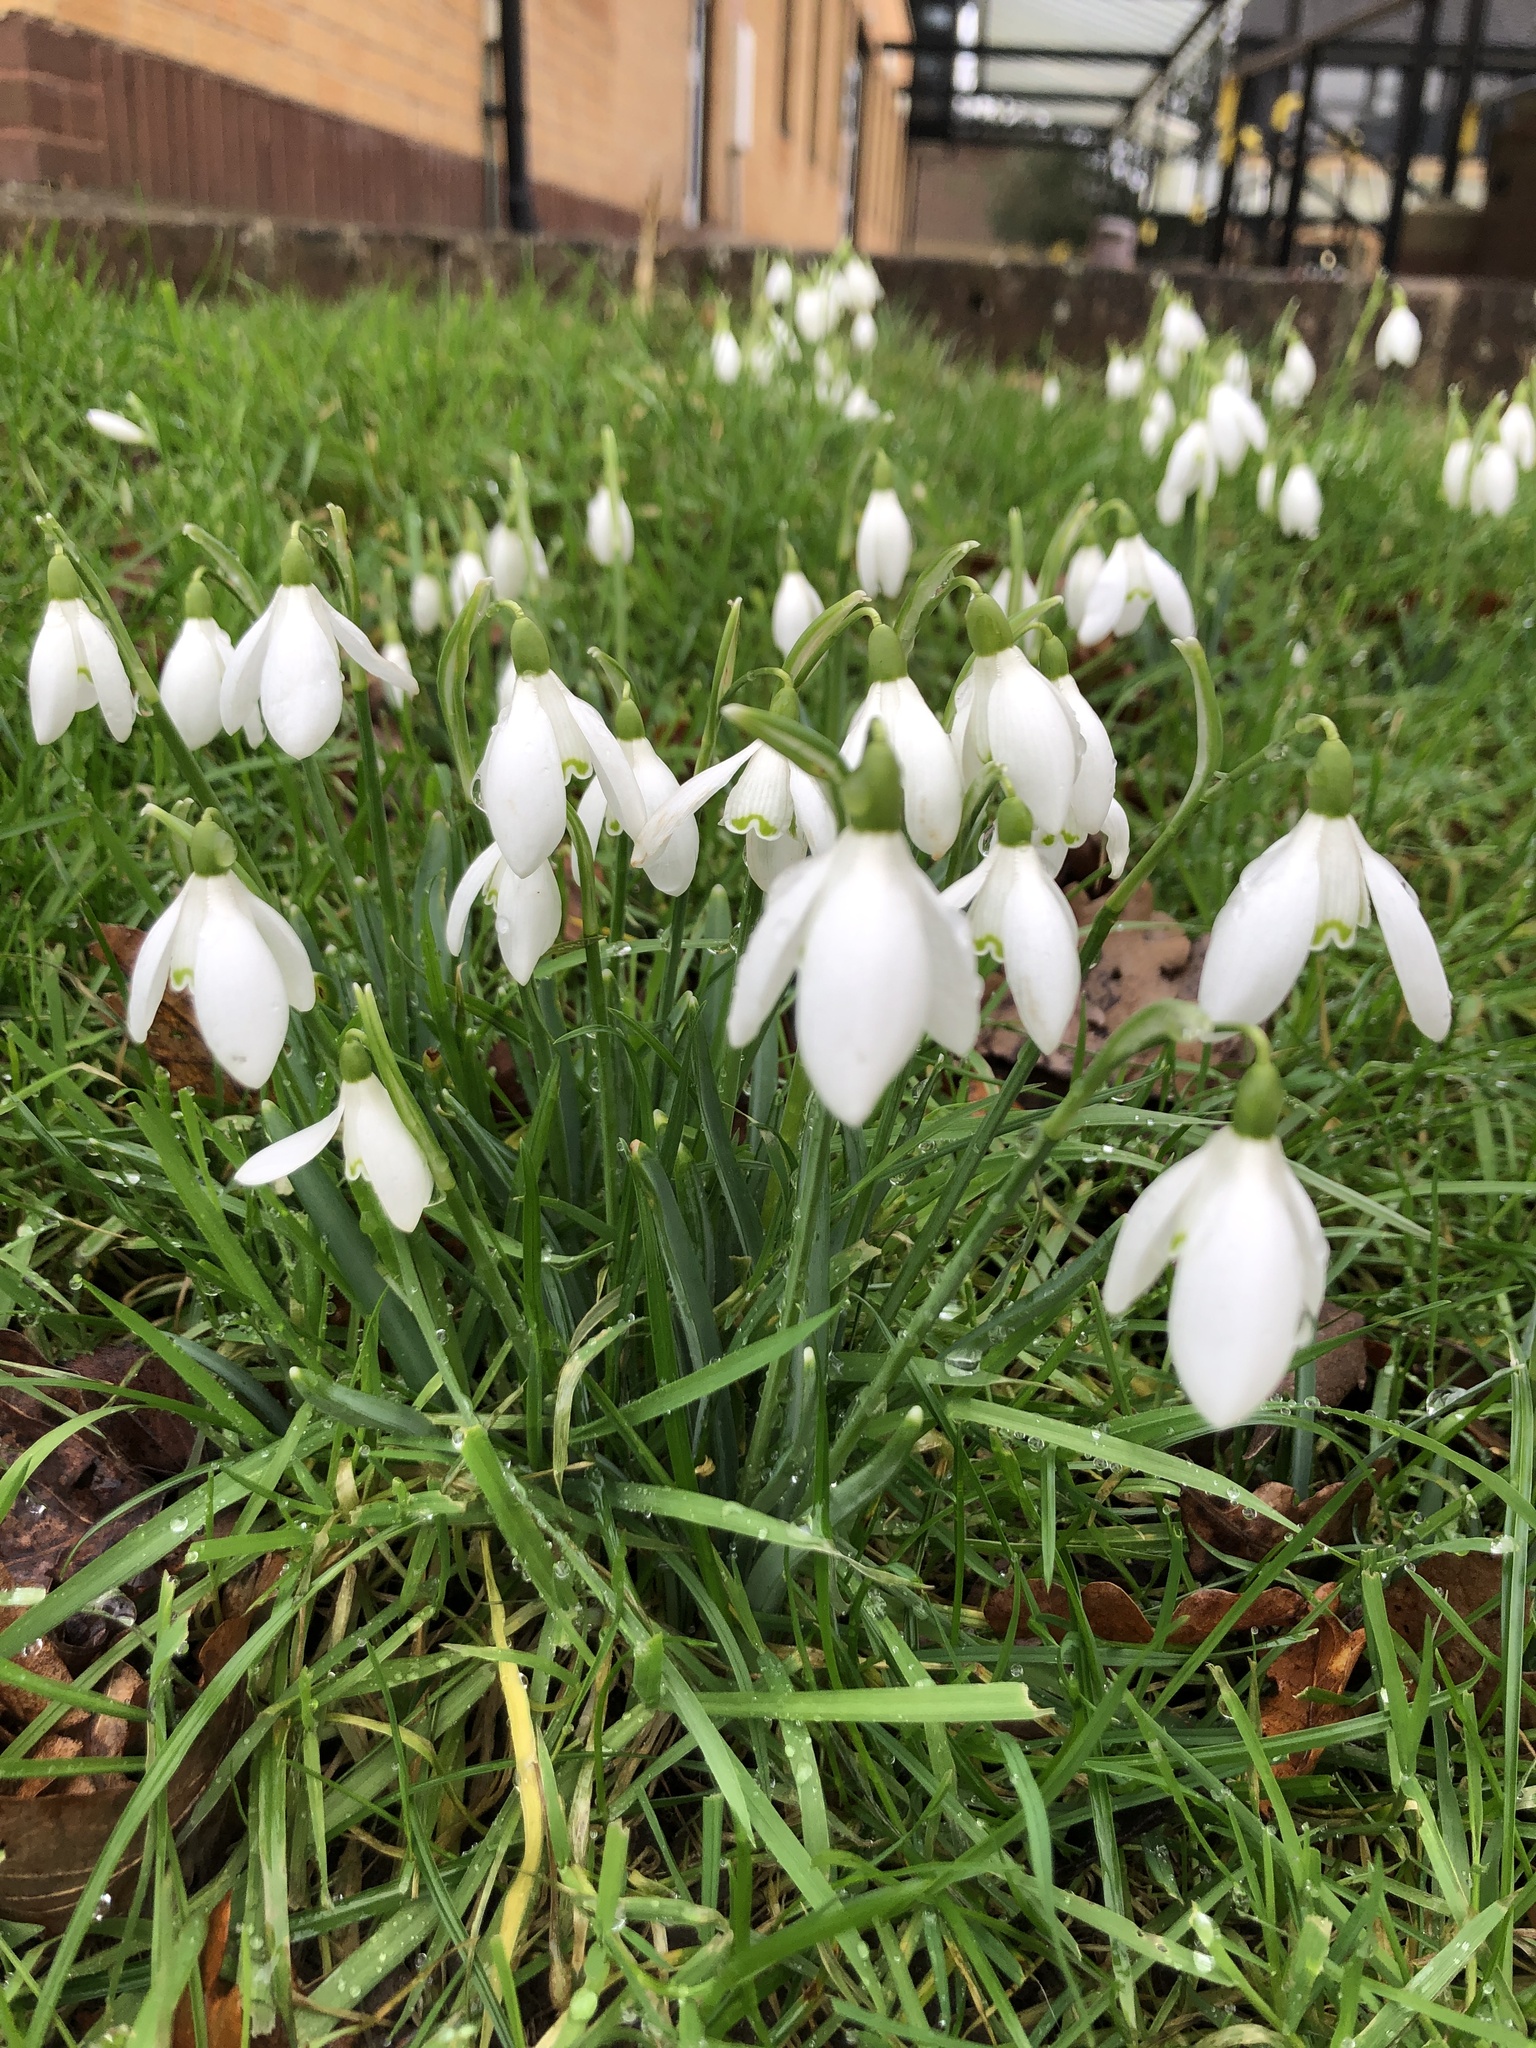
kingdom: Plantae
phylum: Tracheophyta
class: Liliopsida
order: Asparagales
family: Amaryllidaceae
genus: Galanthus
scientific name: Galanthus nivalis
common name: Snowdrop
